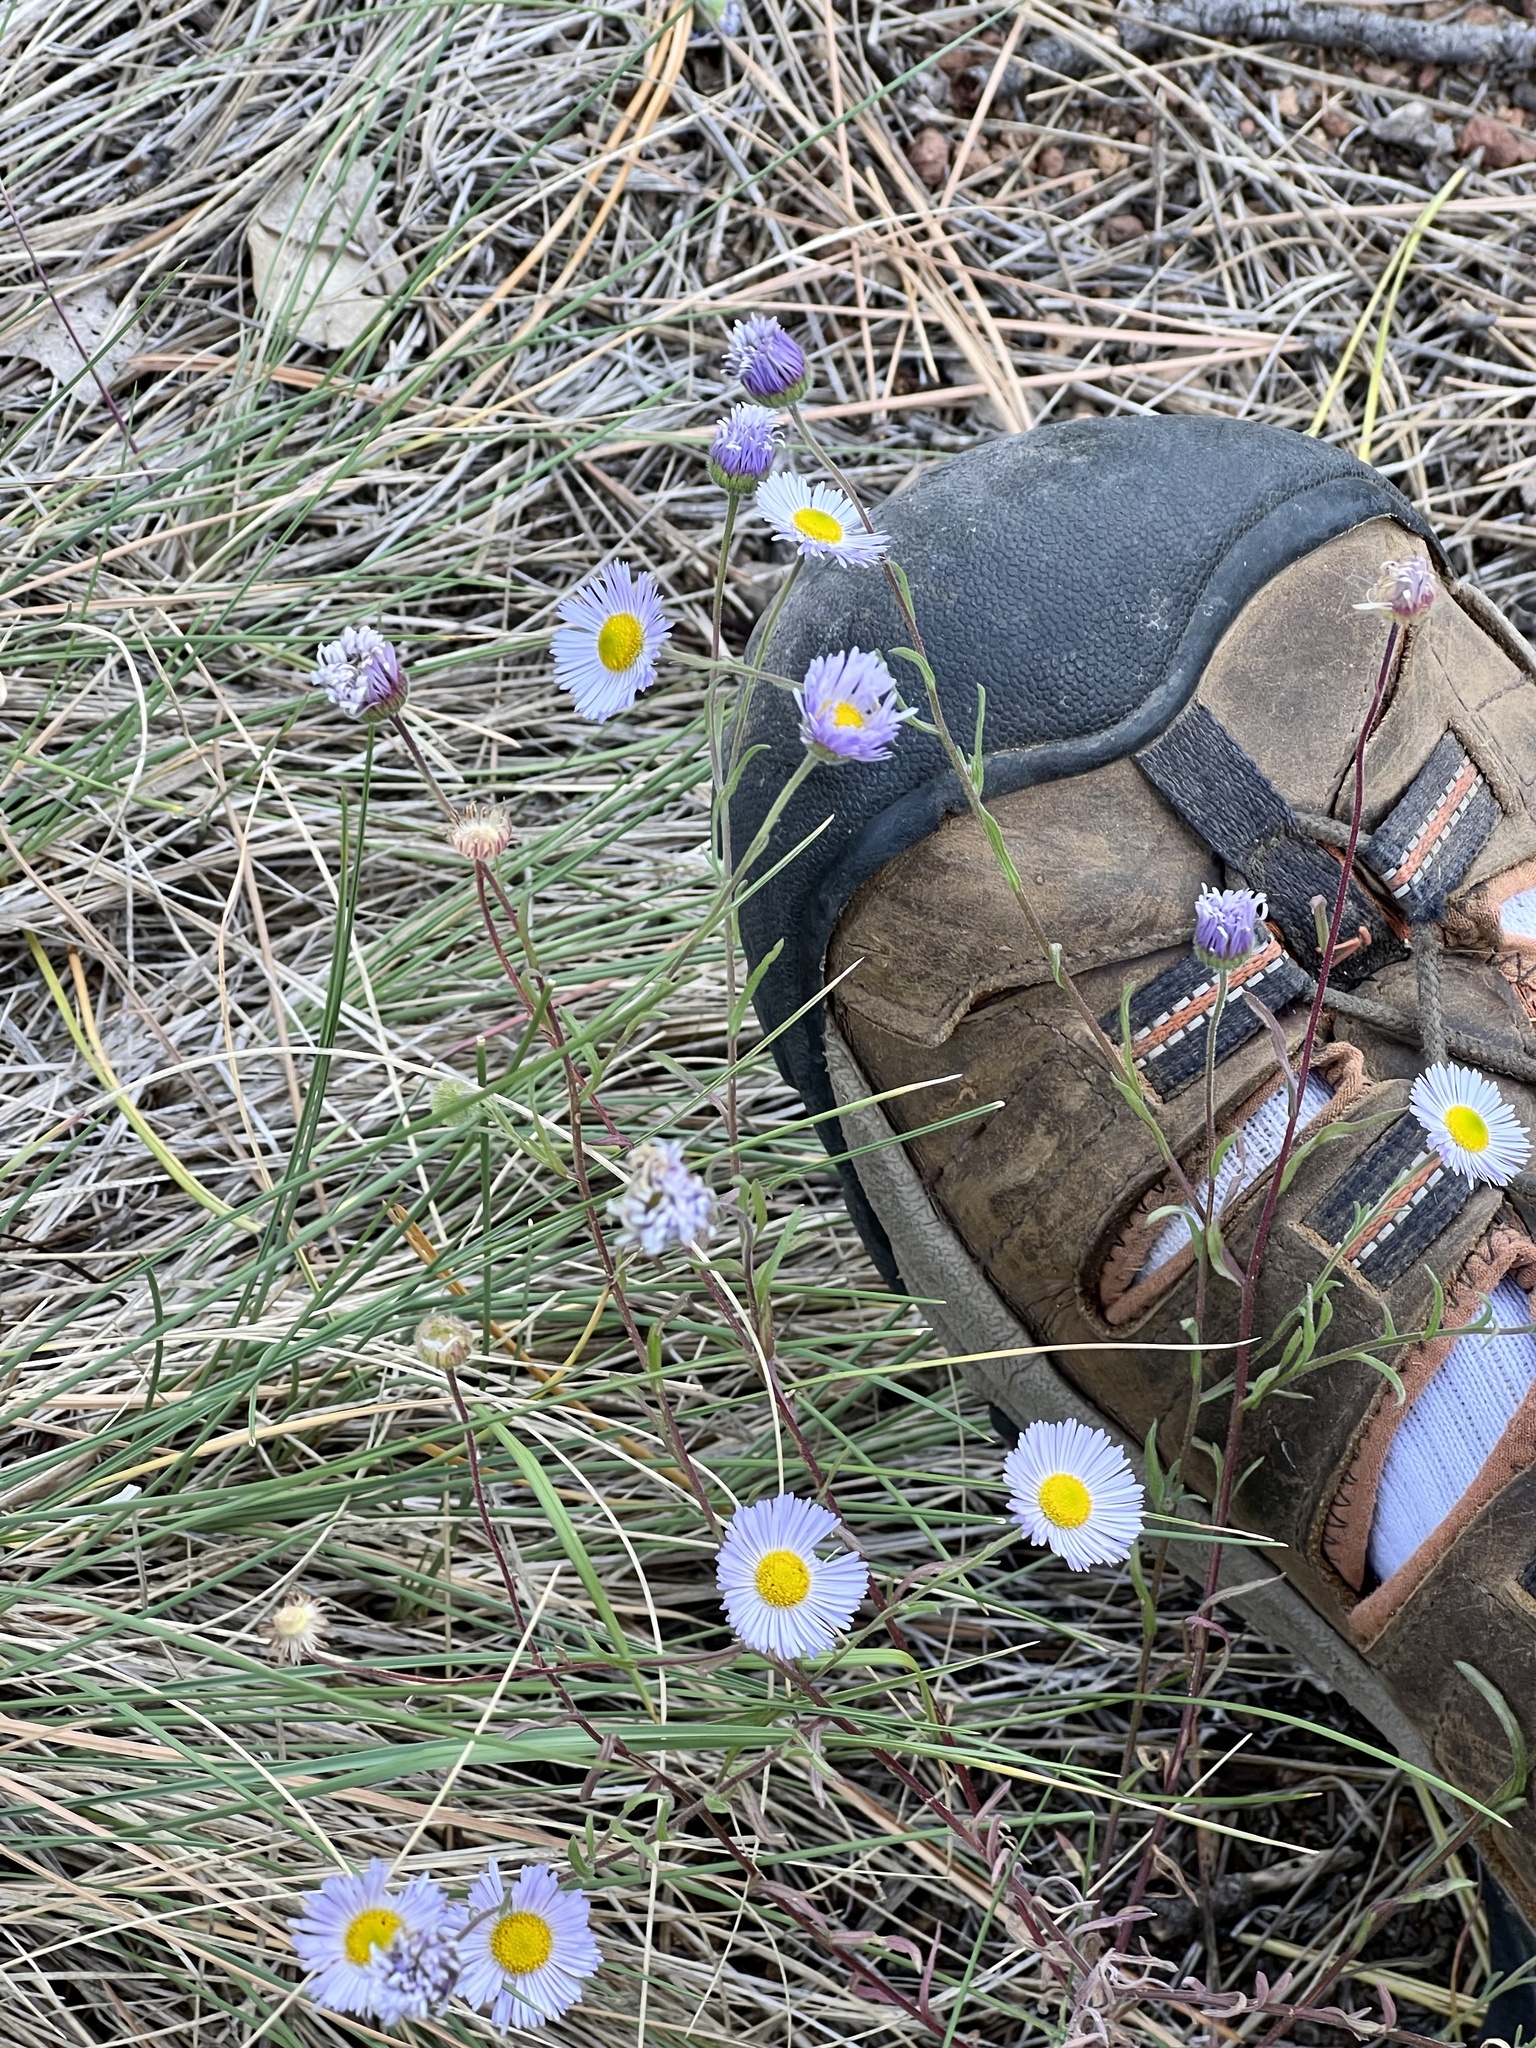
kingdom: Plantae
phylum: Tracheophyta
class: Magnoliopsida
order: Asterales
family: Asteraceae
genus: Erigeron
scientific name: Erigeron divergens
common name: Diffuse fleabane
